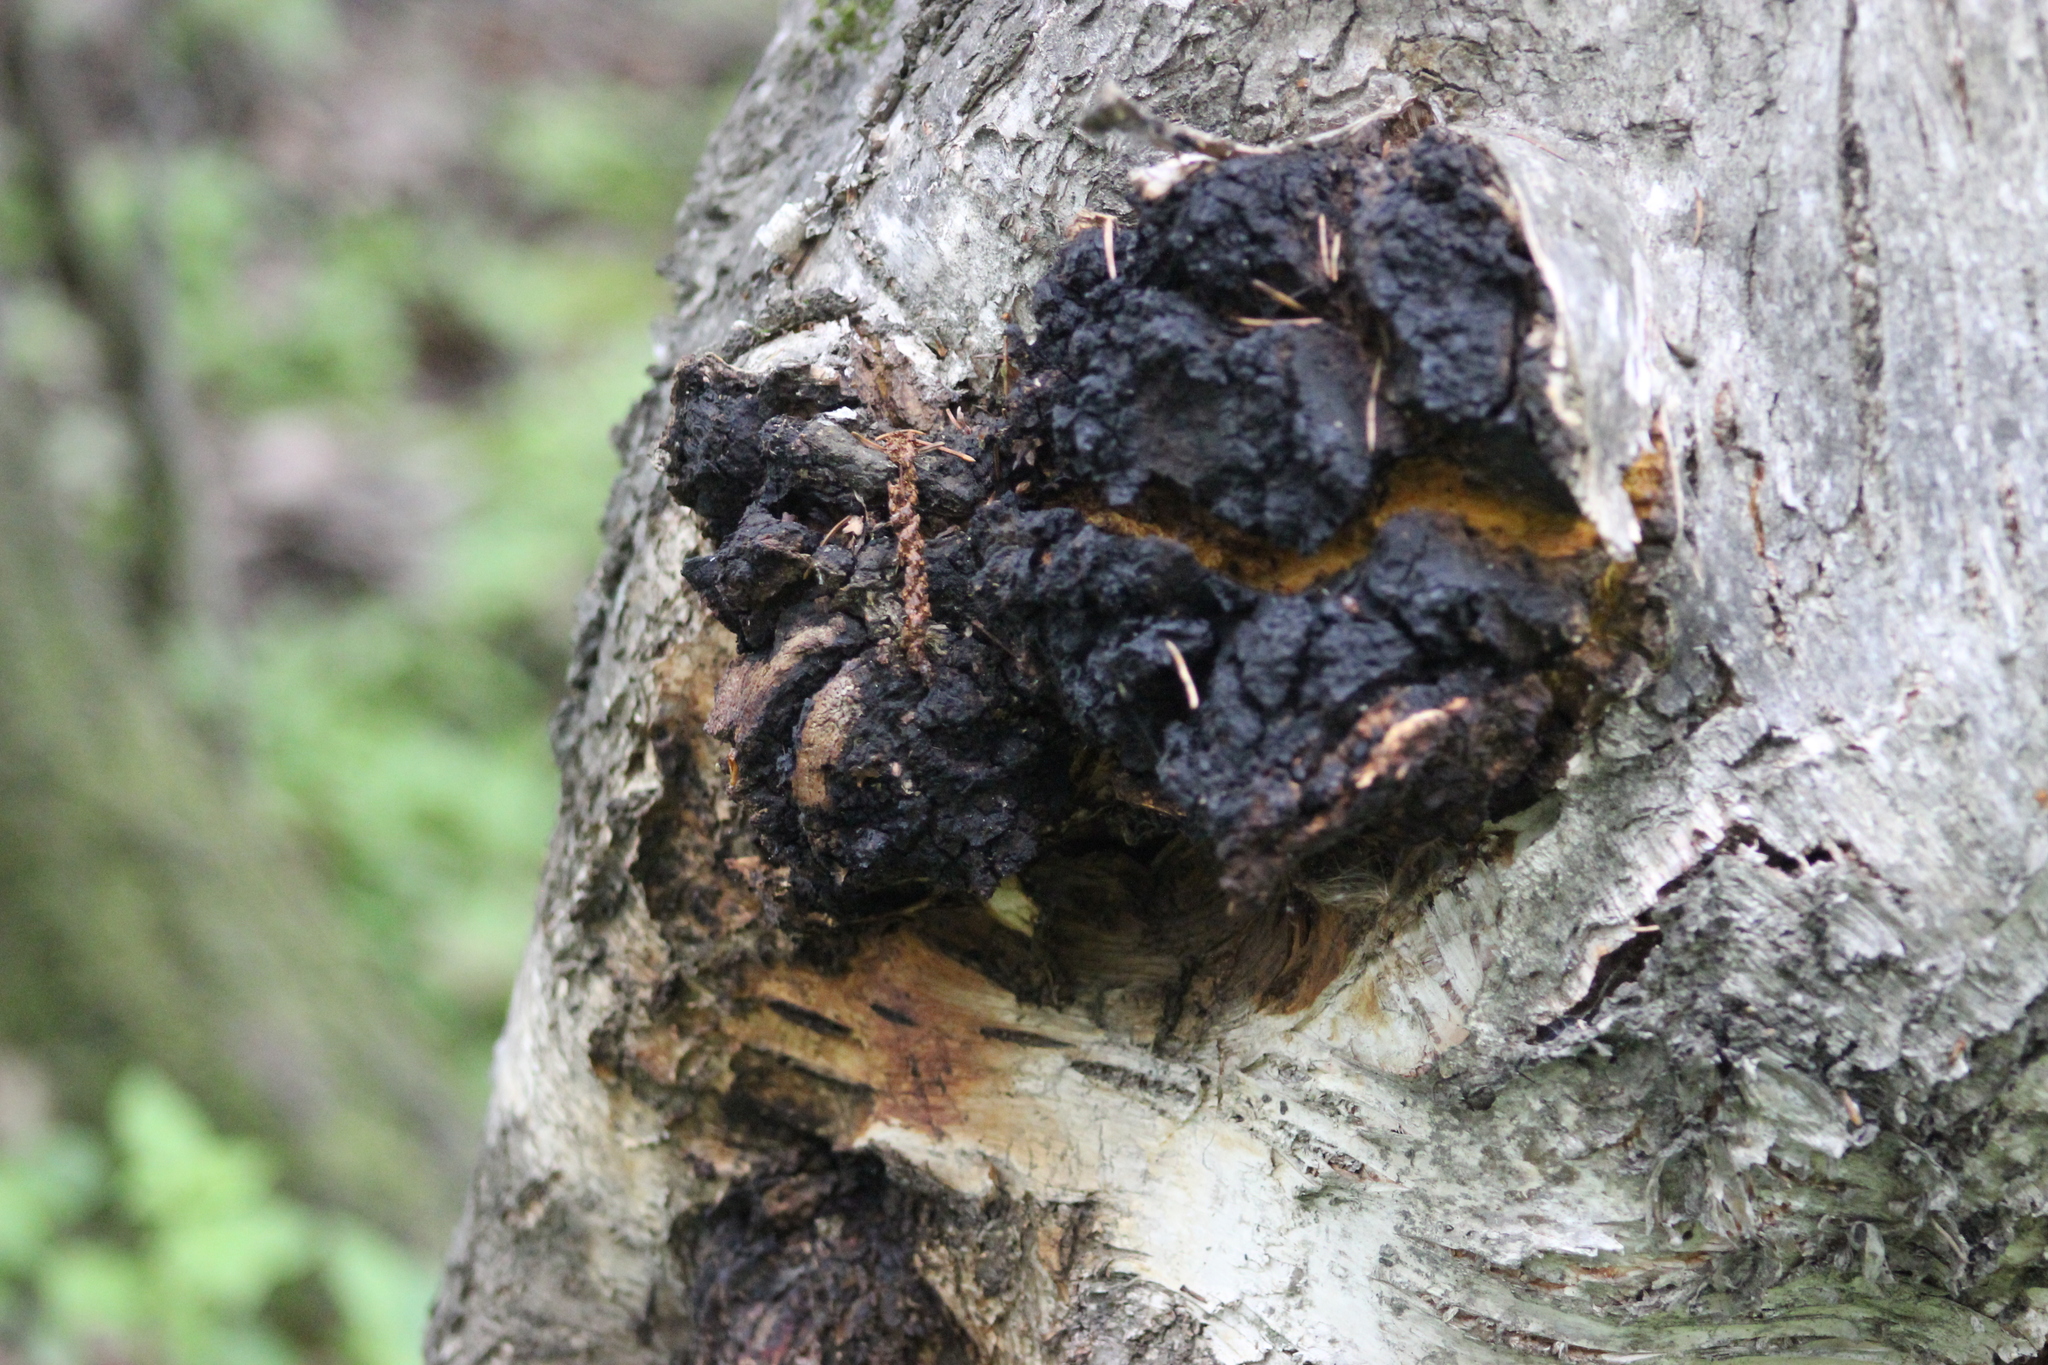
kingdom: Fungi
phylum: Basidiomycota
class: Agaricomycetes
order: Hymenochaetales
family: Hymenochaetaceae
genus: Inonotus
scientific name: Inonotus obliquus
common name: Chaga
